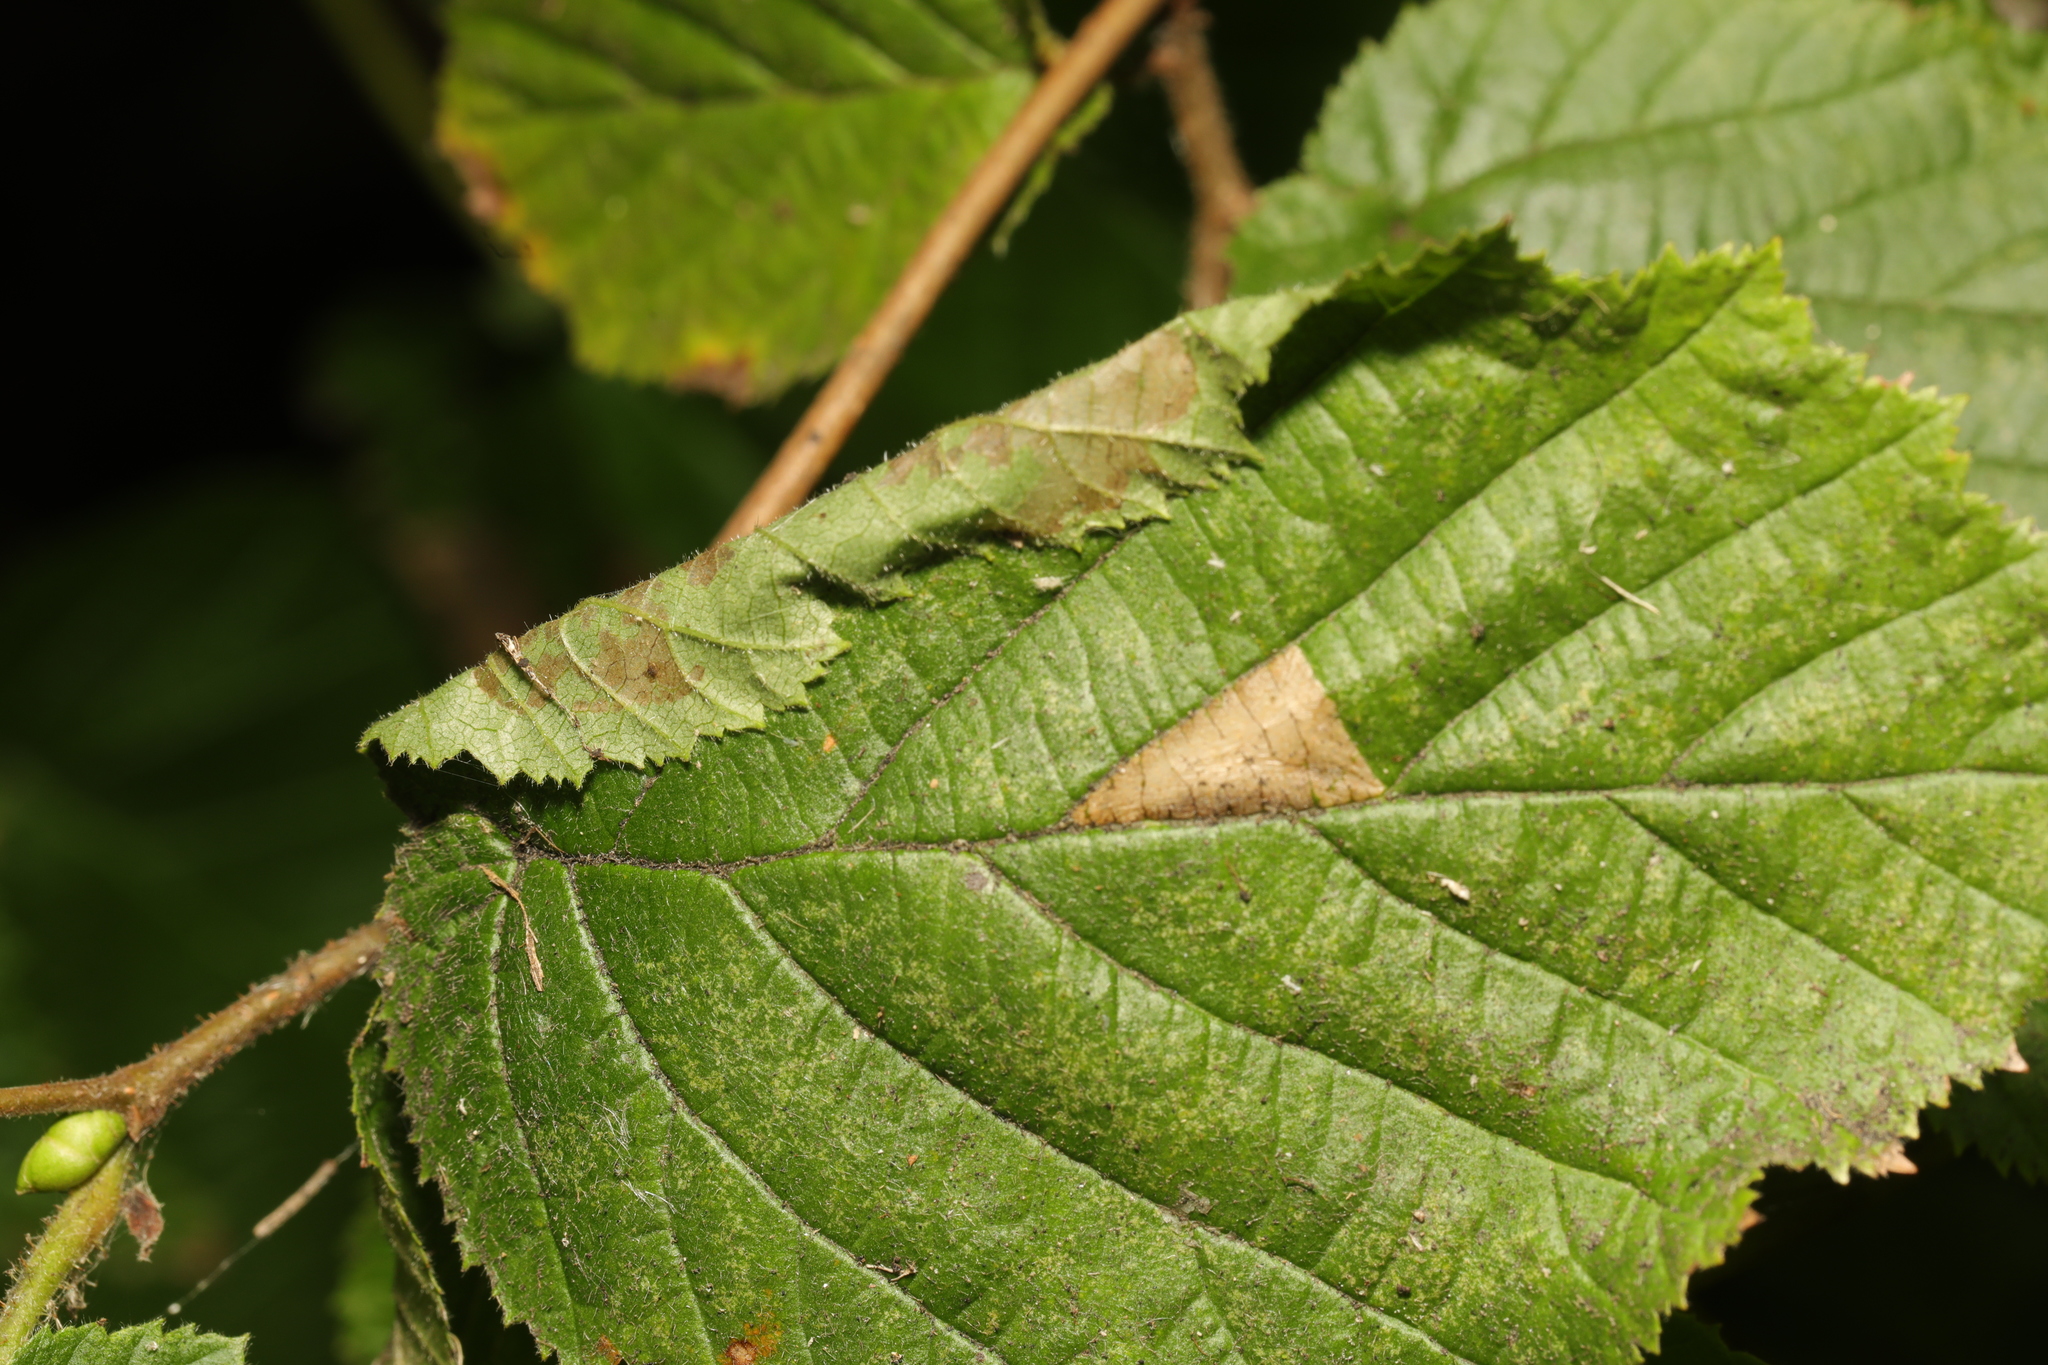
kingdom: Animalia
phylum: Arthropoda
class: Insecta
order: Lepidoptera
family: Gracillariidae
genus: Parornix
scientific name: Parornix devoniella
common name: Hazel slender
